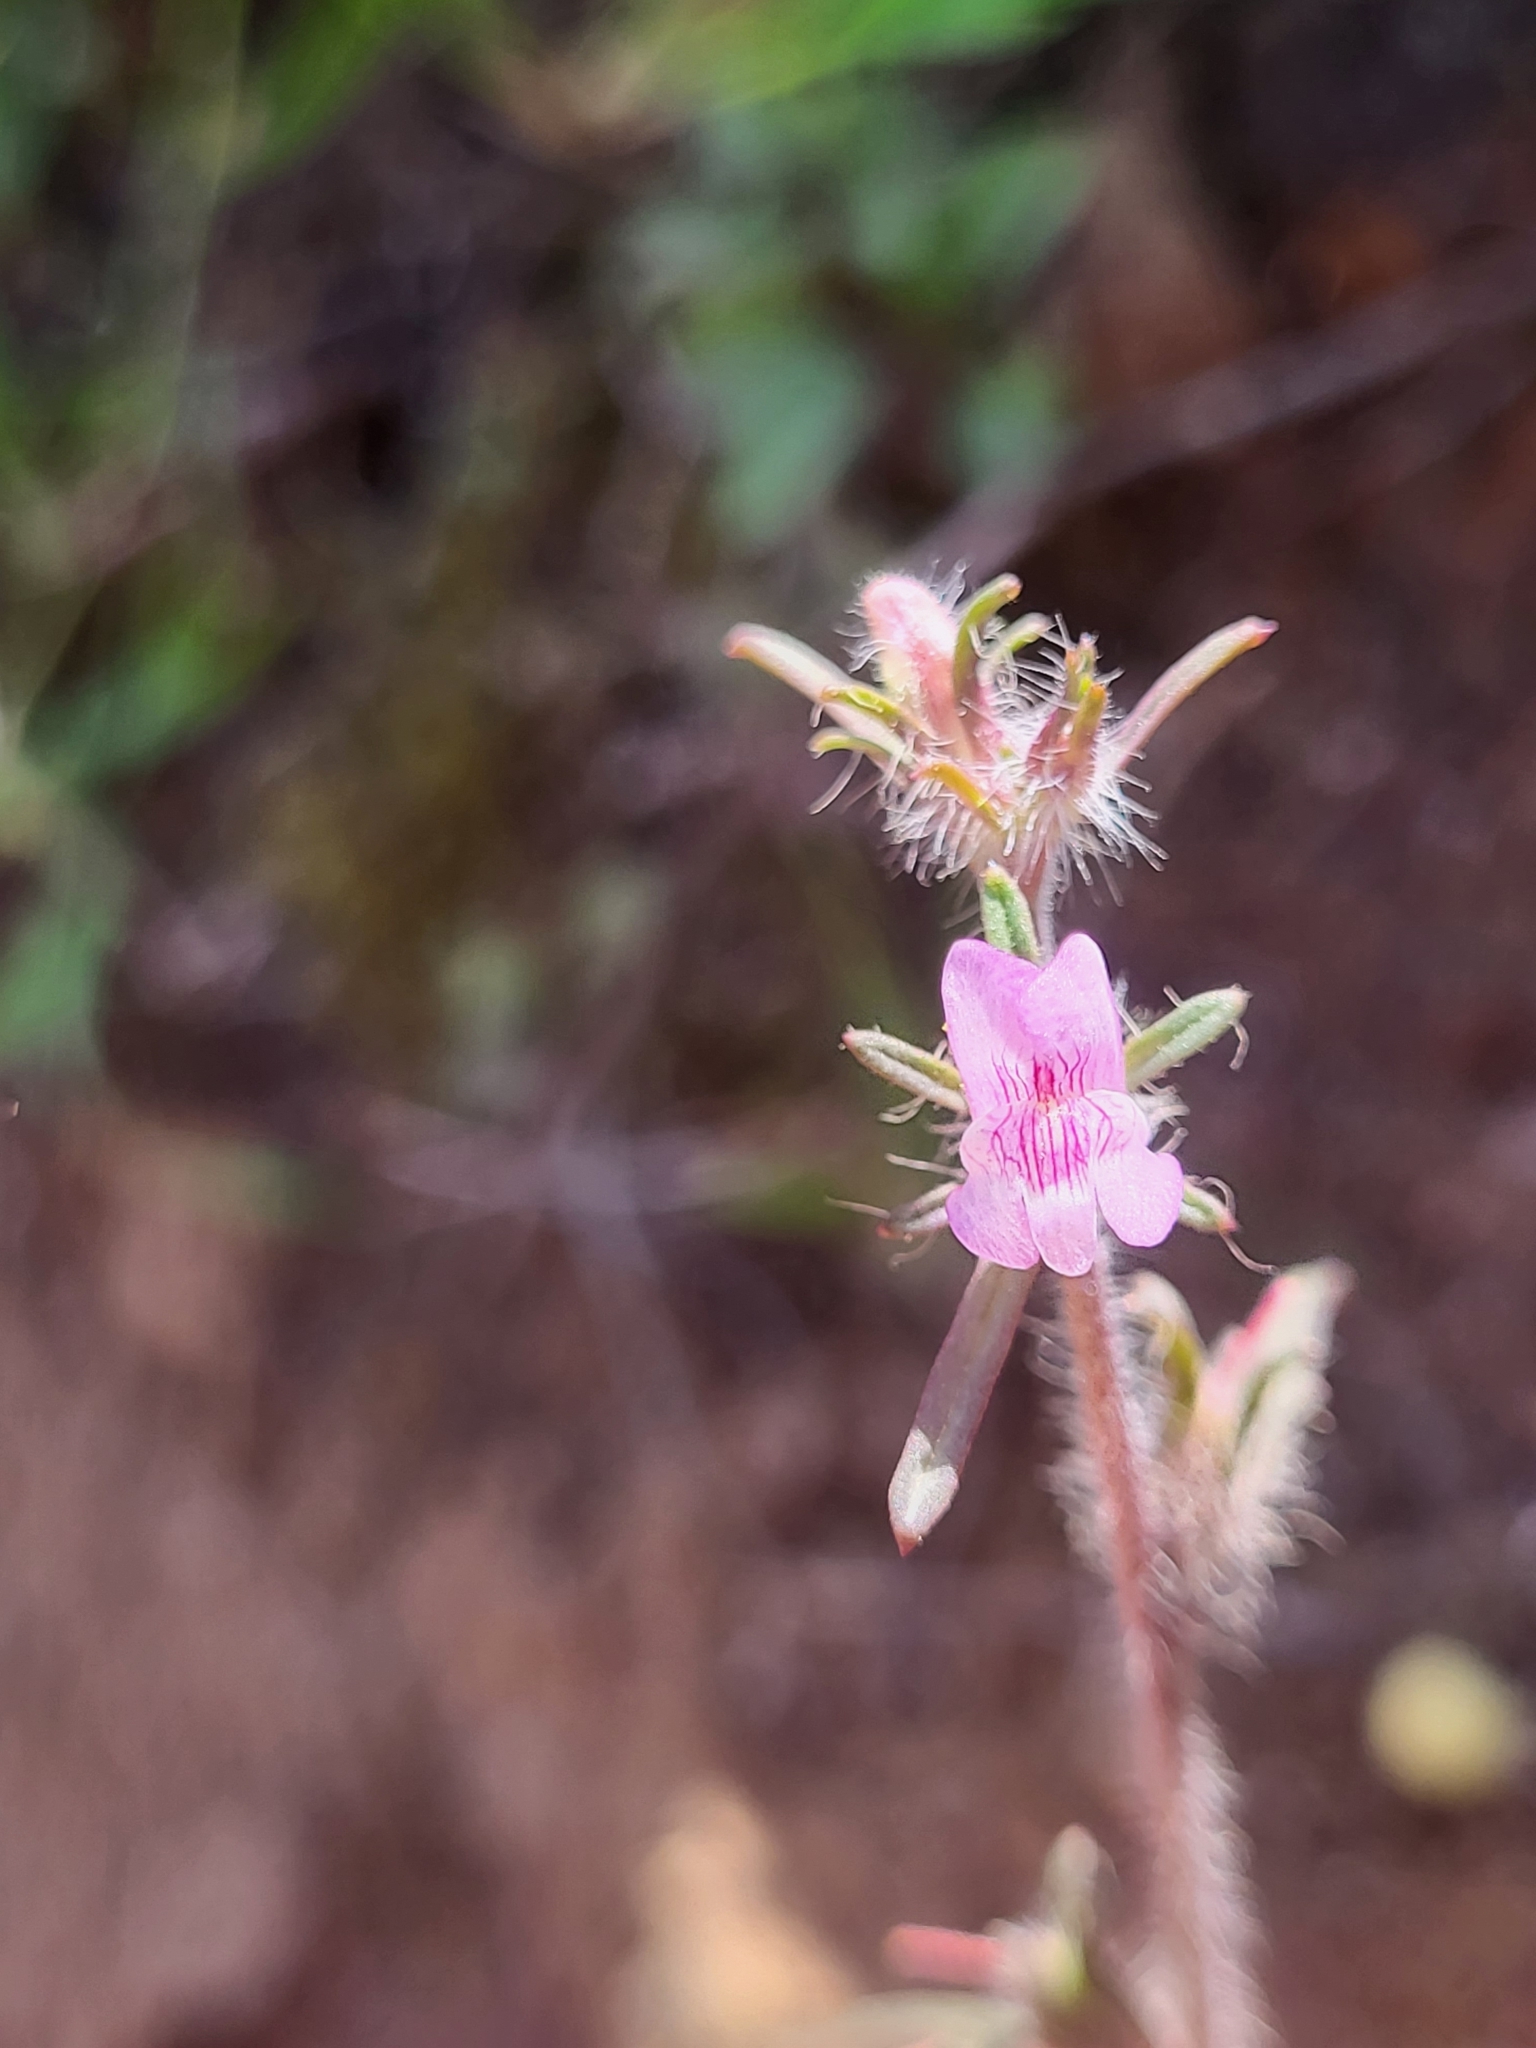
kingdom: Plantae
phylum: Tracheophyta
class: Magnoliopsida
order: Lamiales
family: Plantaginaceae
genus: Misopates
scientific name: Misopates orontium
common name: Weasel's-snout
